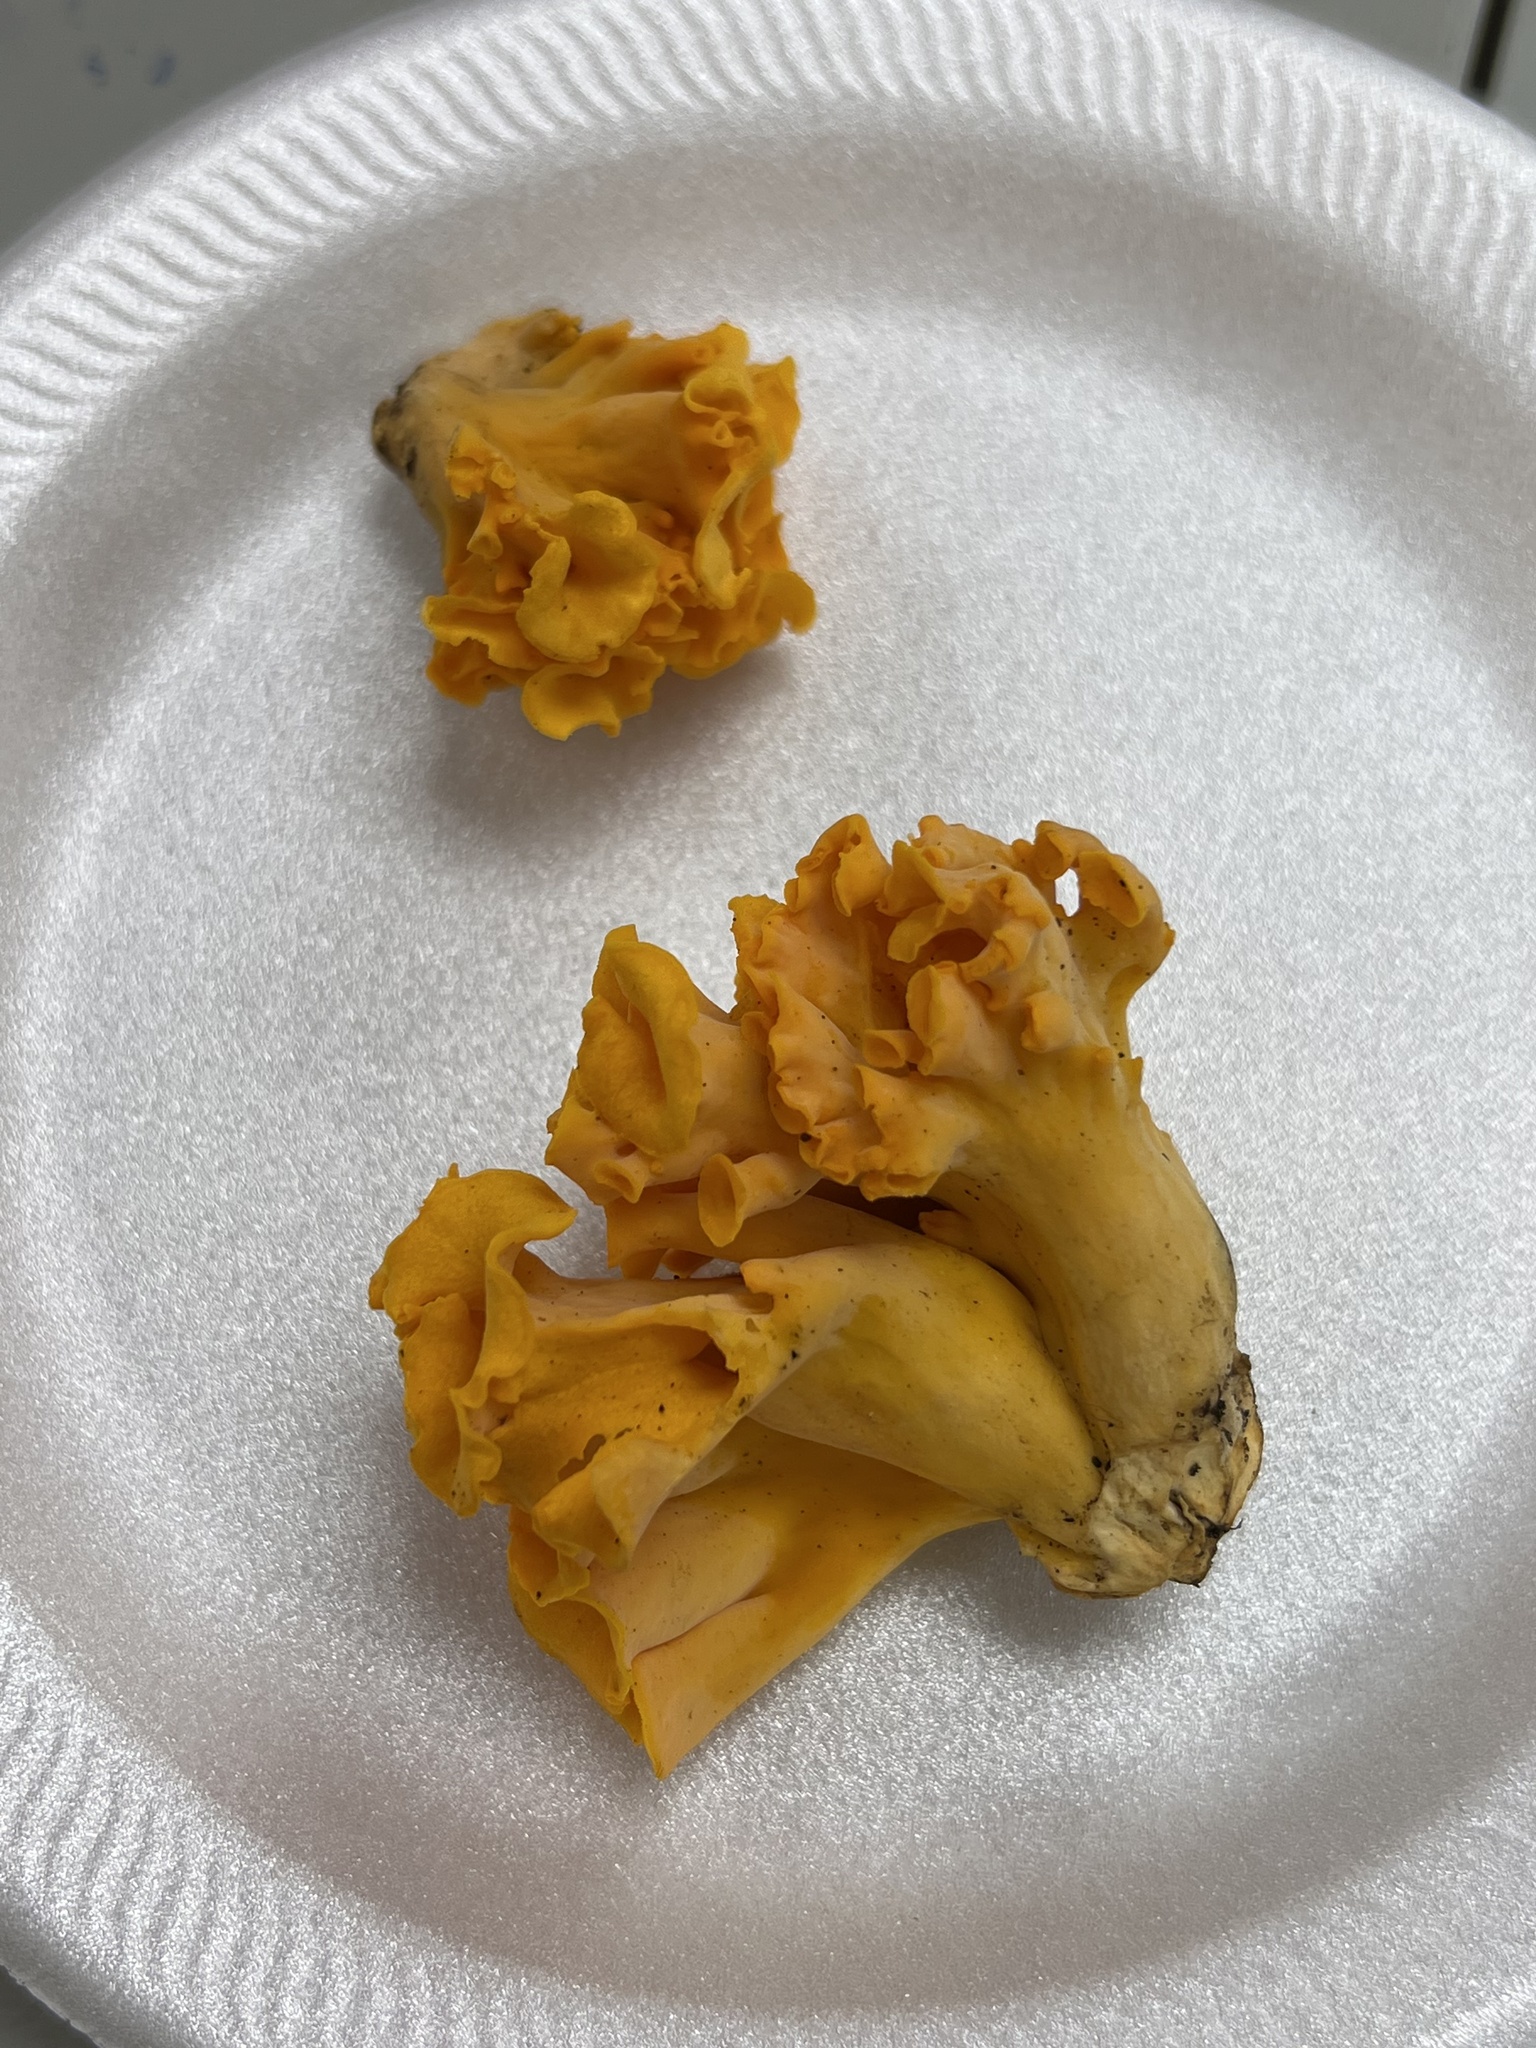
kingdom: Fungi
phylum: Basidiomycota
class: Agaricomycetes
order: Cantharellales
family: Hydnaceae
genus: Cantharellus
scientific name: Cantharellus odoratus
